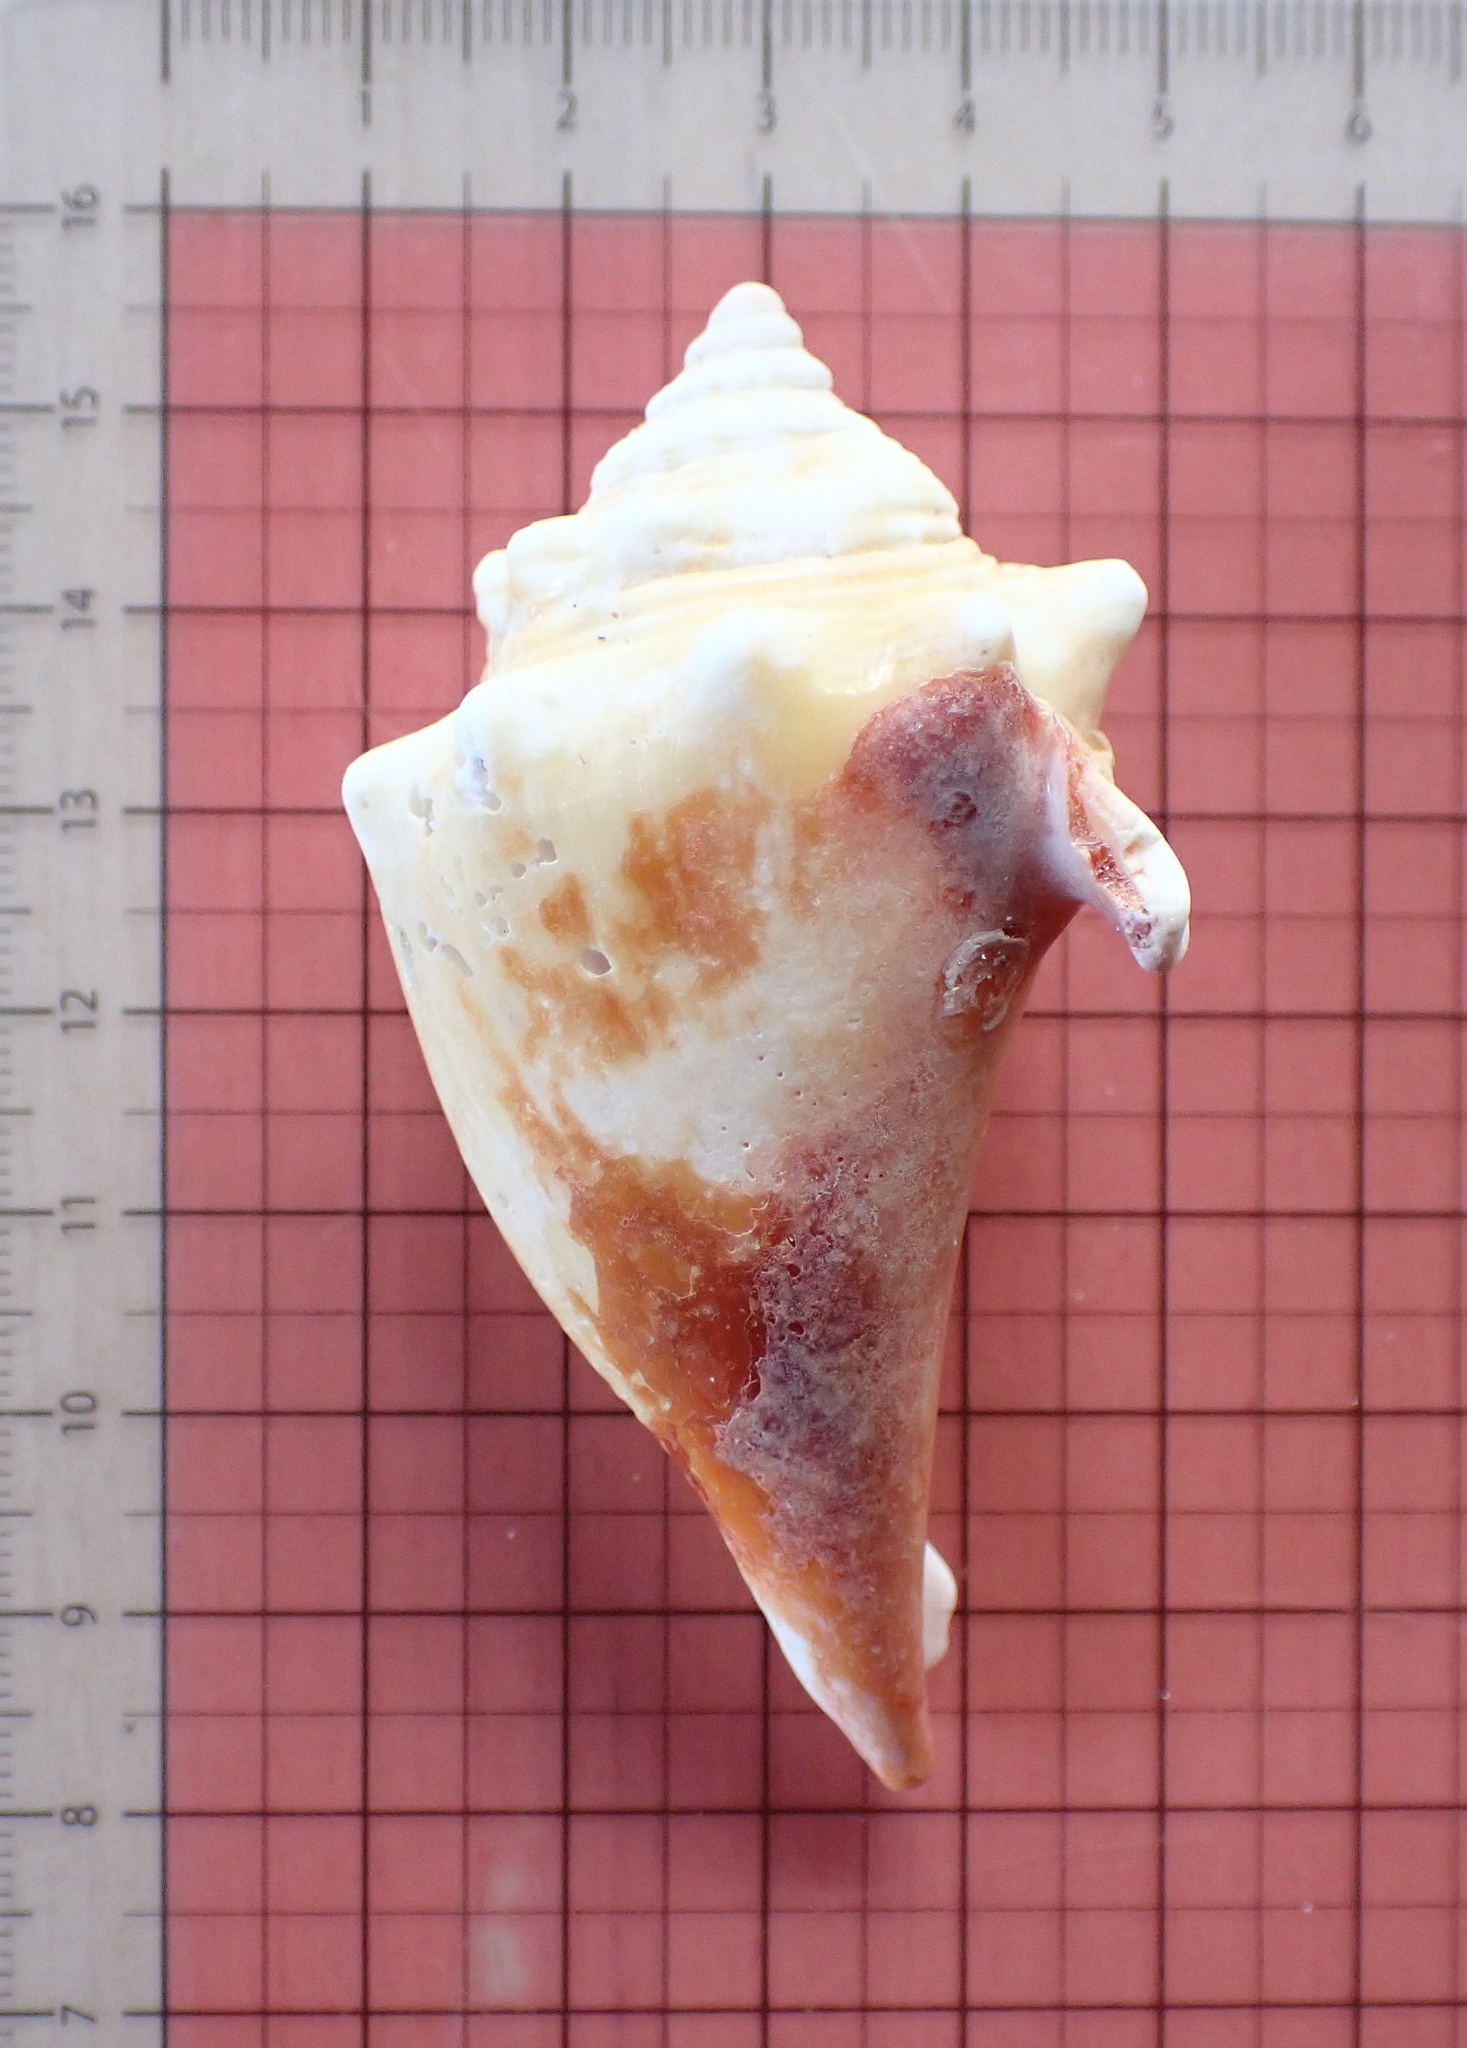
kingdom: Animalia
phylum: Mollusca
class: Gastropoda
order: Littorinimorpha
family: Strombidae
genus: Strombus
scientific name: Strombus alatus
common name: Florida fighting conch
